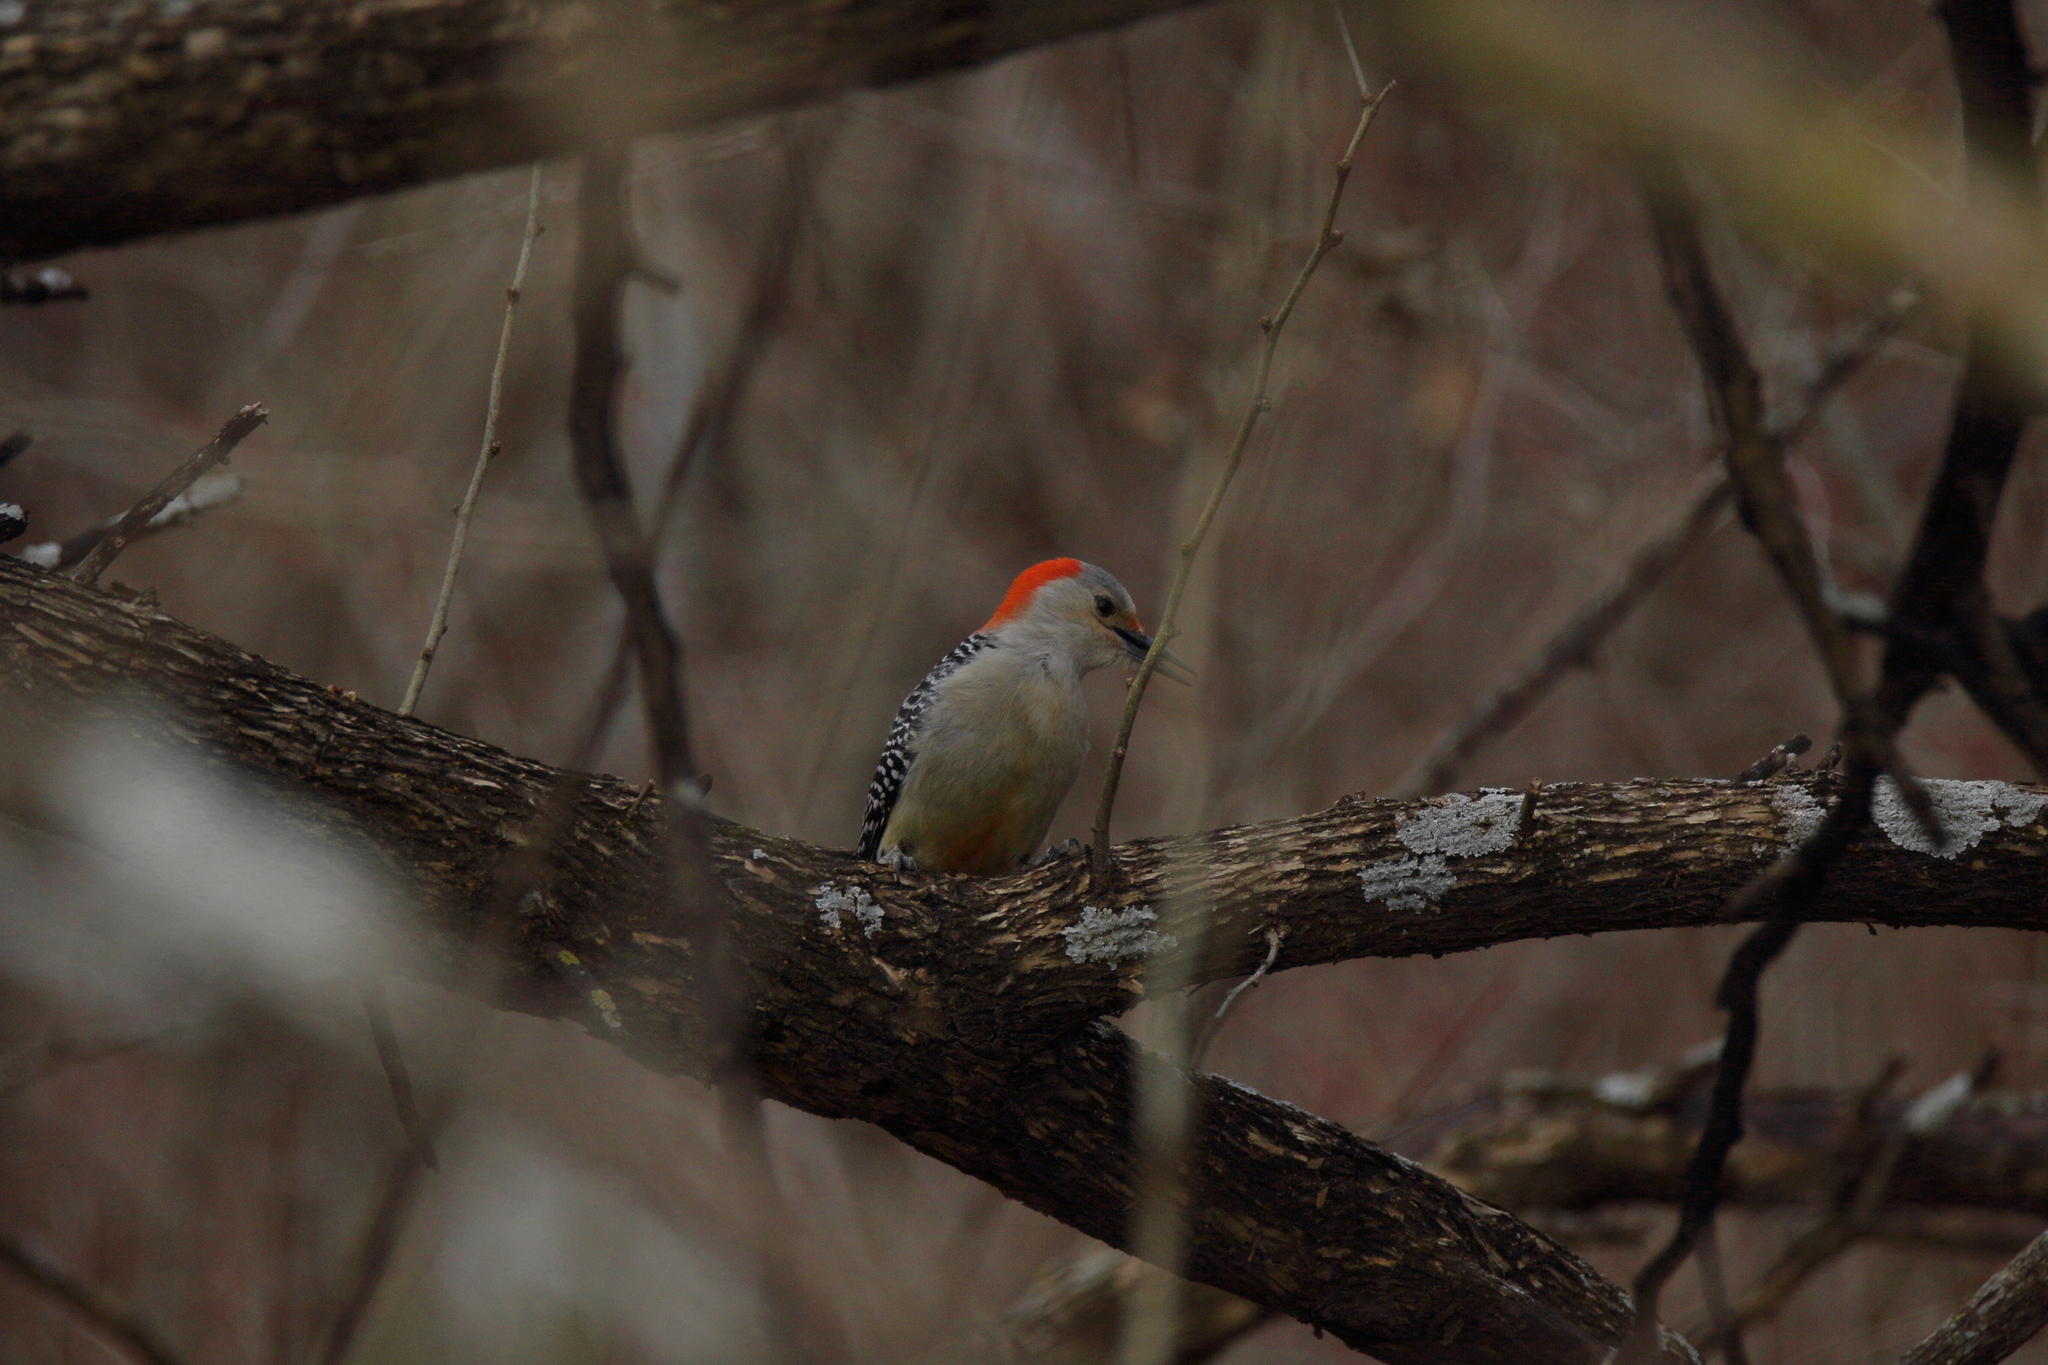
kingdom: Animalia
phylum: Chordata
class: Aves
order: Piciformes
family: Picidae
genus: Melanerpes
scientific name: Melanerpes carolinus
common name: Red-bellied woodpecker
